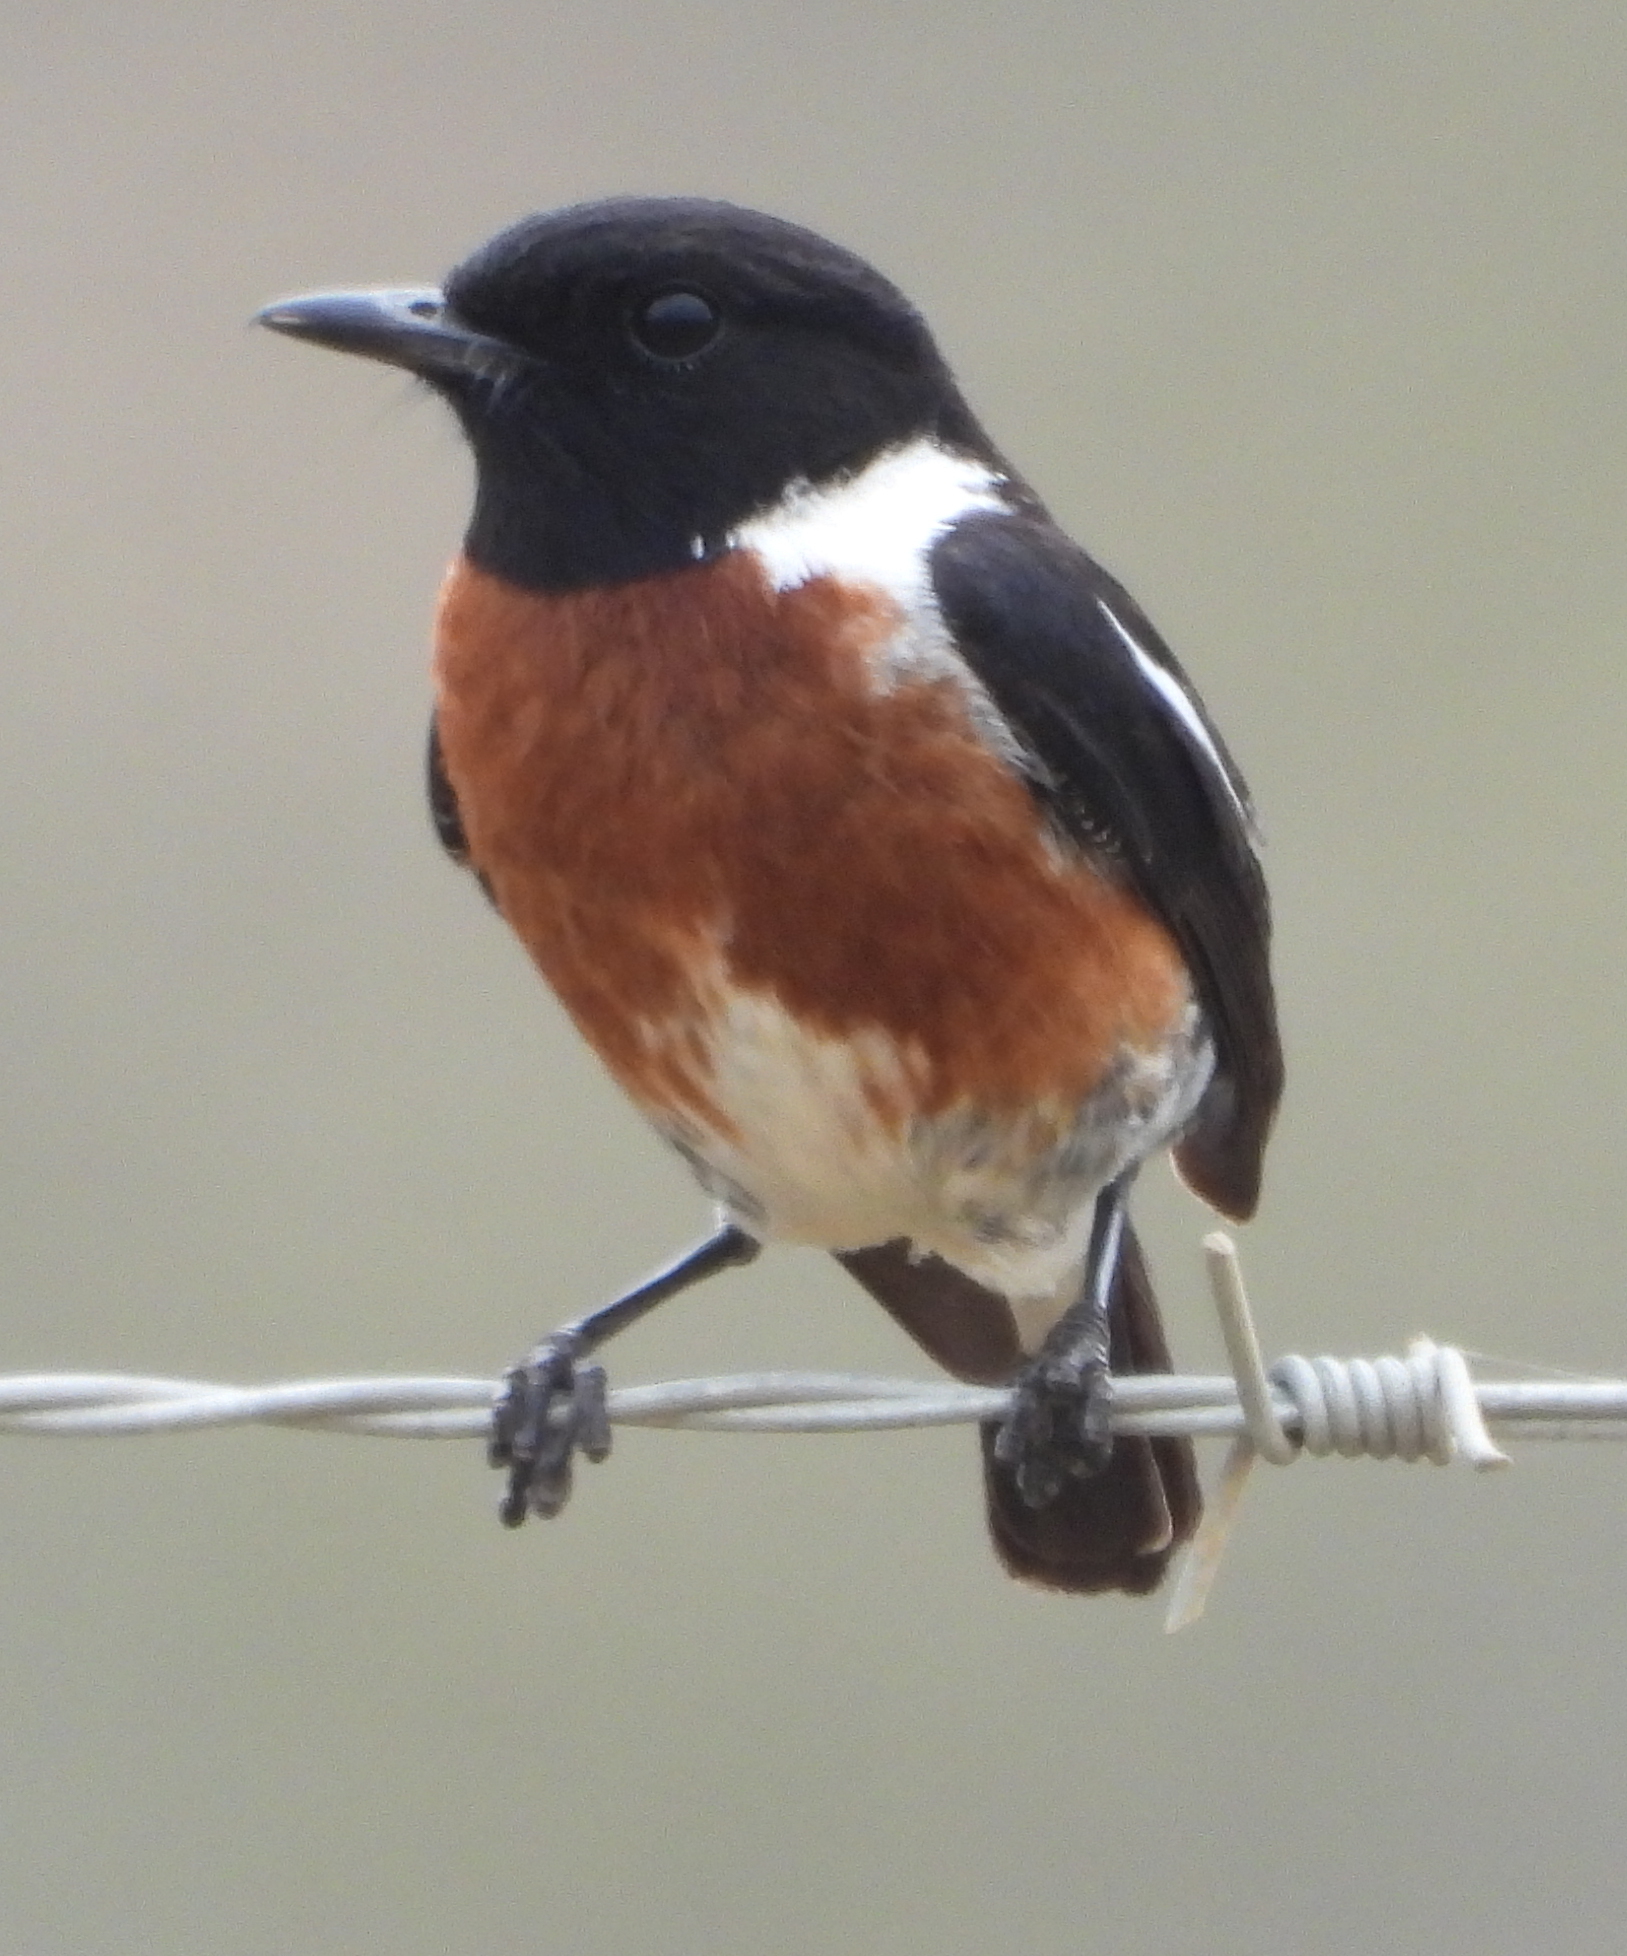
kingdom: Animalia
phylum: Chordata
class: Aves
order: Passeriformes
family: Muscicapidae
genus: Saxicola
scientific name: Saxicola torquatus
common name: African stonechat
